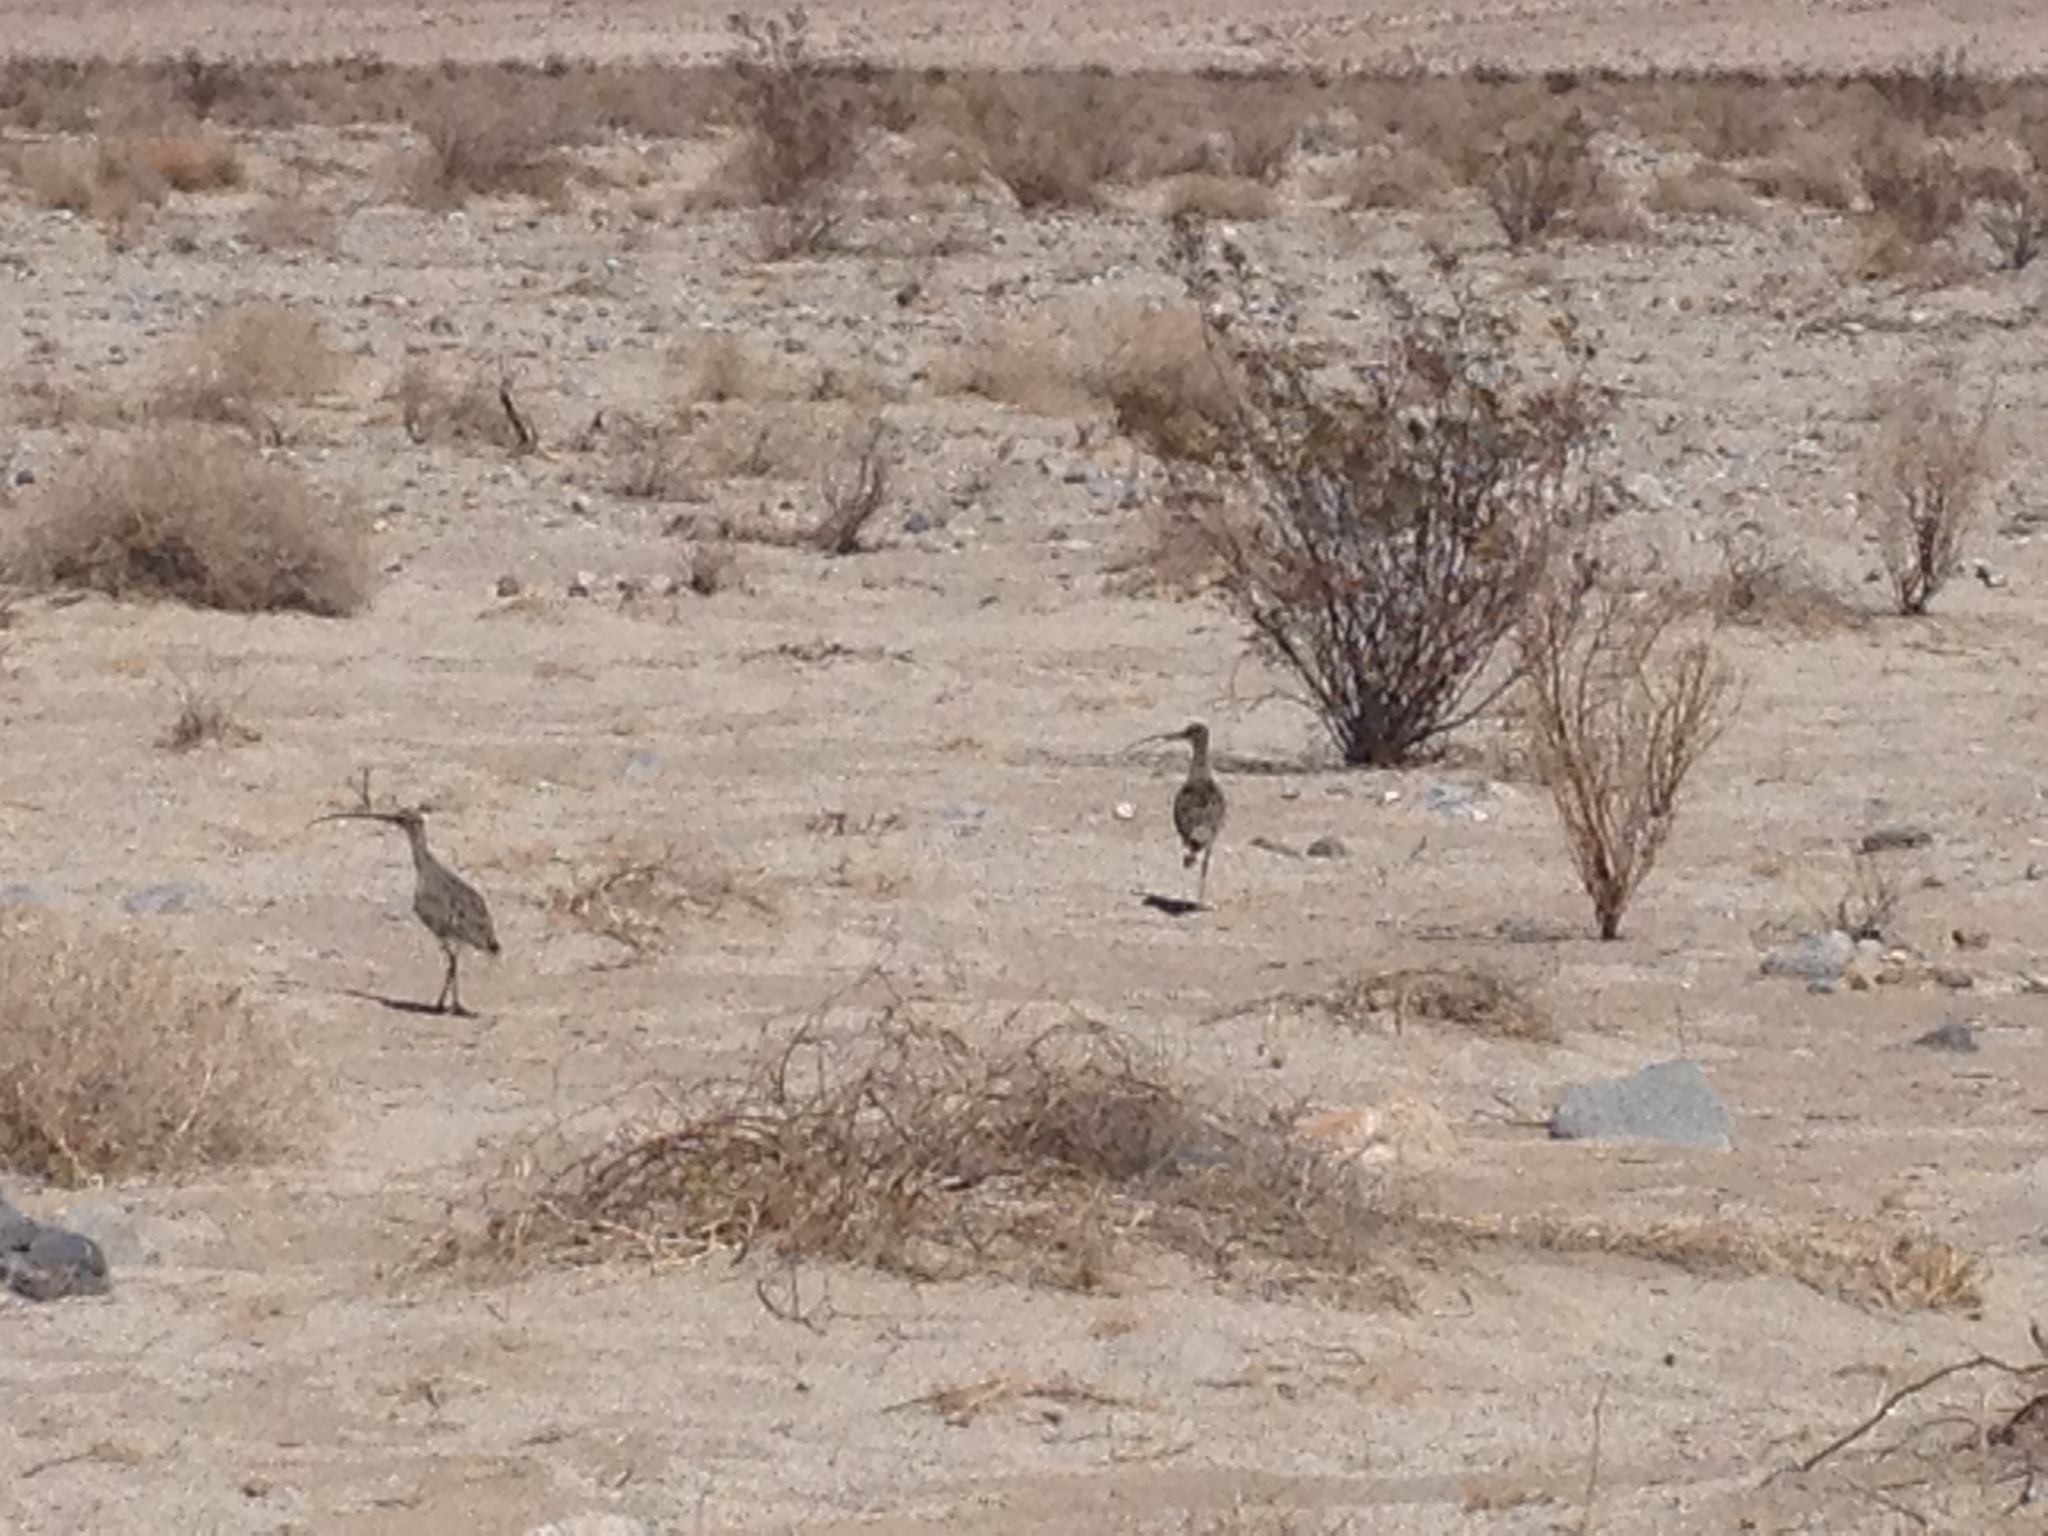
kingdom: Animalia
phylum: Chordata
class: Aves
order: Charadriiformes
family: Scolopacidae
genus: Numenius
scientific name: Numenius americanus
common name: Long-billed curlew
